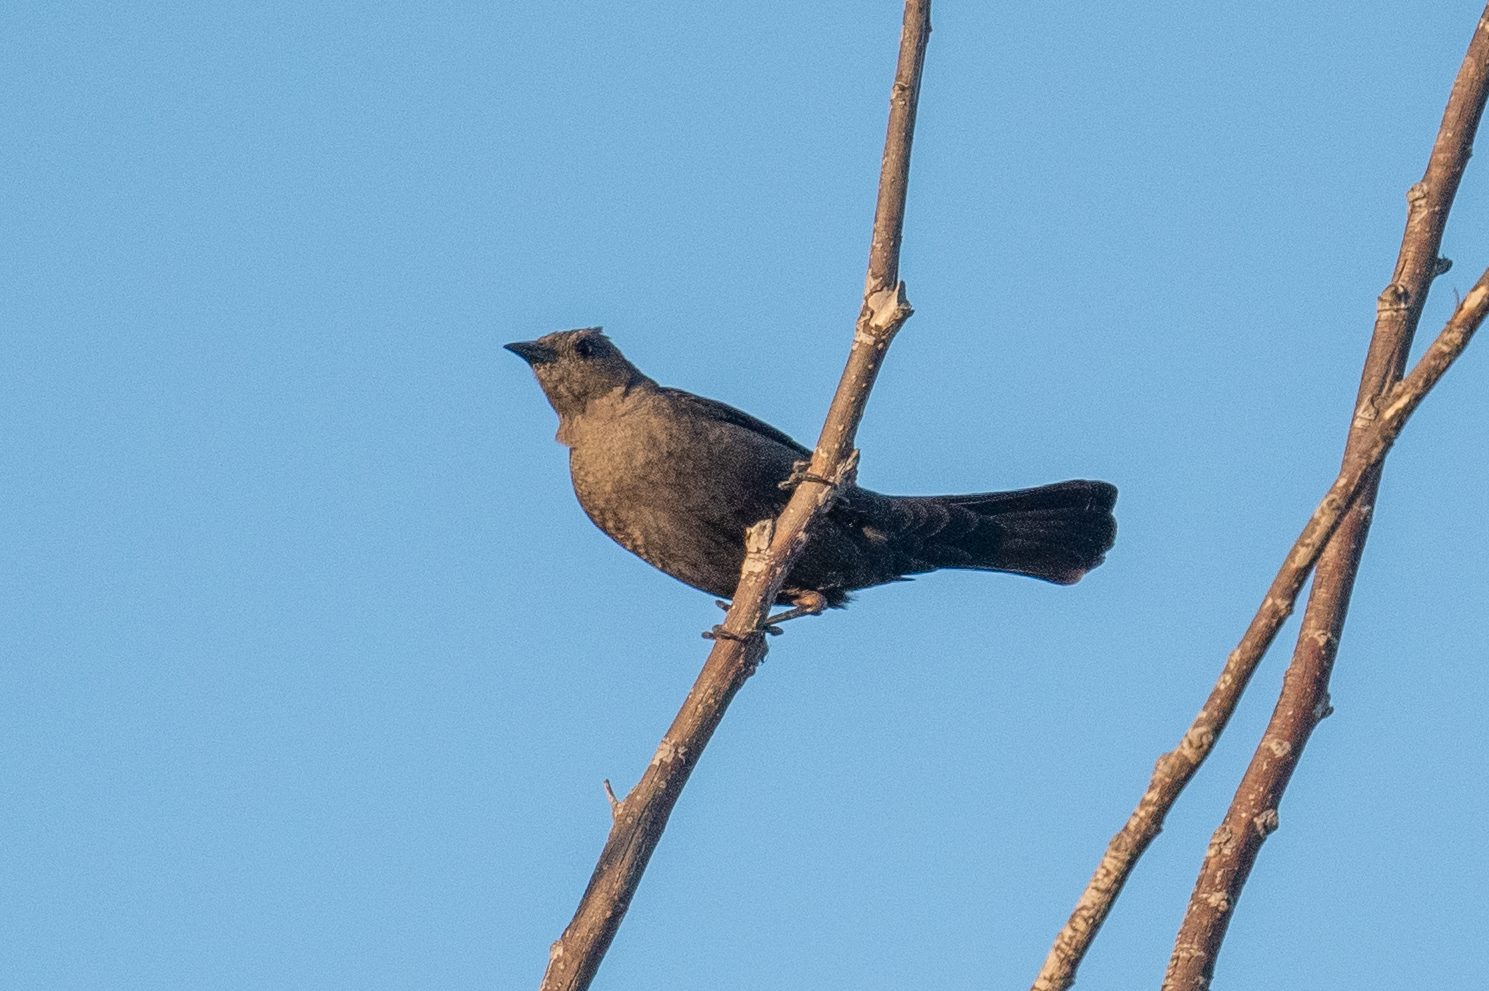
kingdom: Animalia
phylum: Chordata
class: Aves
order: Passeriformes
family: Icteridae
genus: Euphagus
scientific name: Euphagus cyanocephalus
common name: Brewer's blackbird
